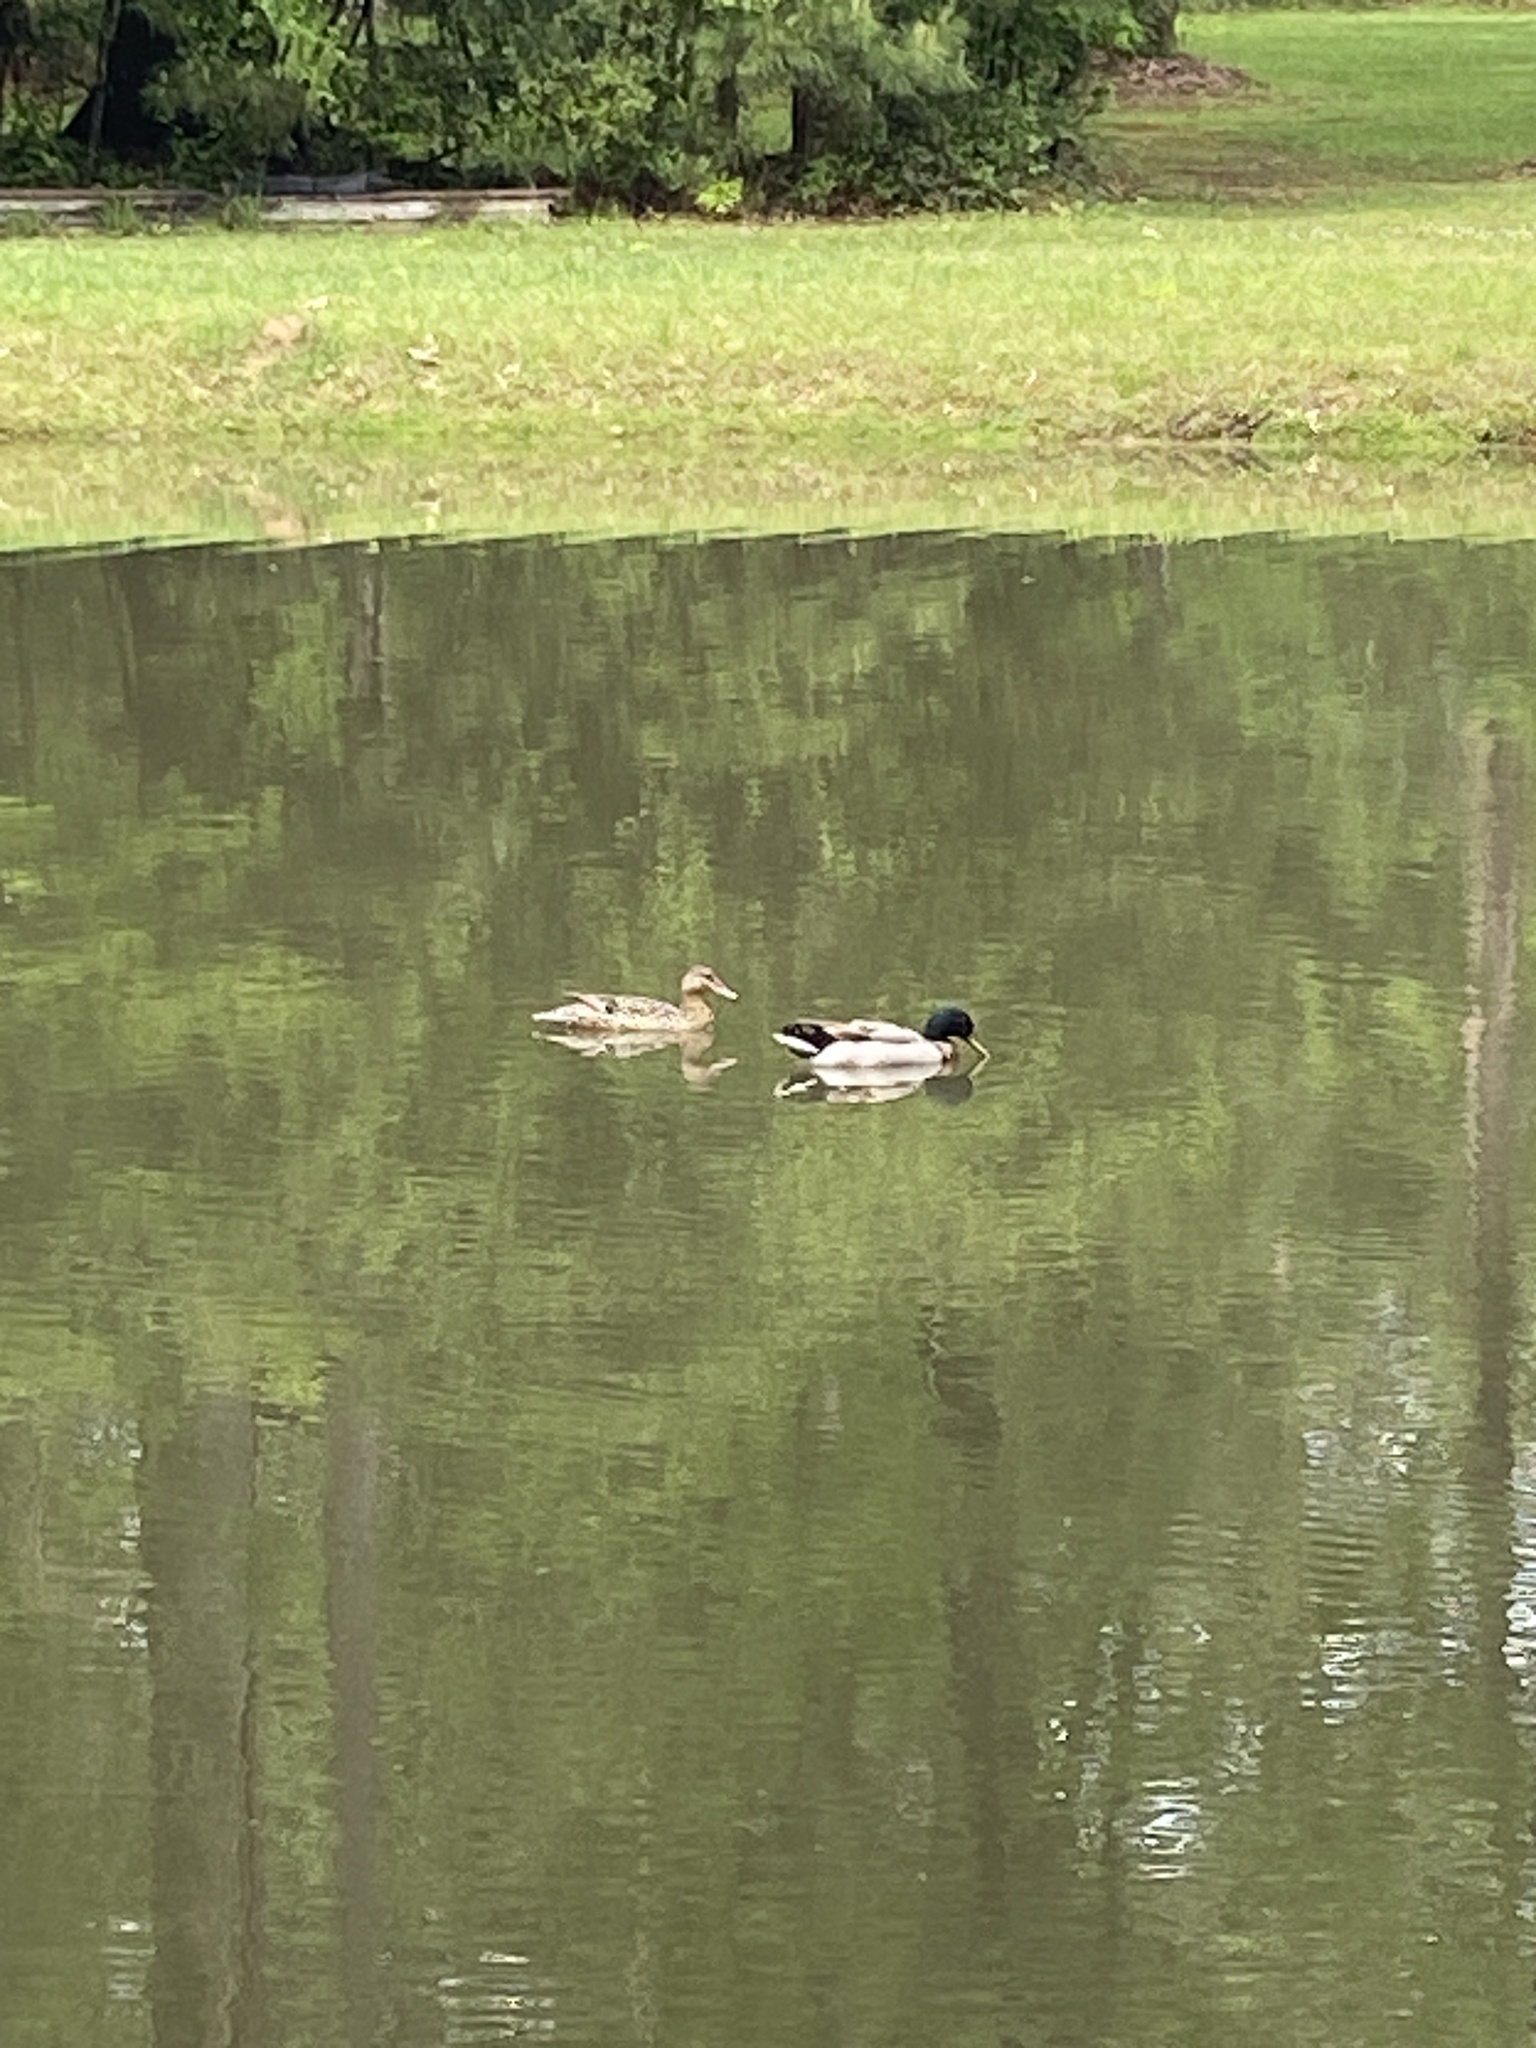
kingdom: Animalia
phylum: Chordata
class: Aves
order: Anseriformes
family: Anatidae
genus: Anas
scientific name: Anas platyrhynchos
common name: Mallard
